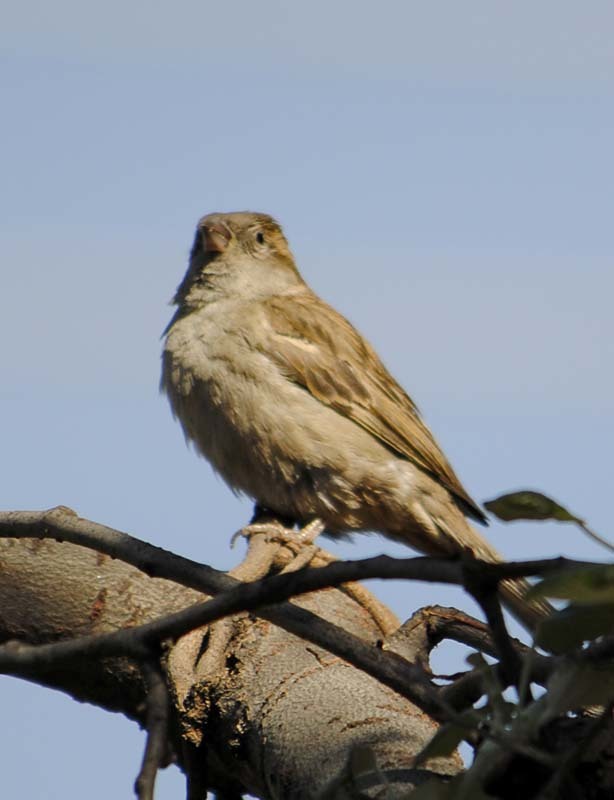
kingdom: Animalia
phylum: Chordata
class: Aves
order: Passeriformes
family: Passeridae
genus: Passer
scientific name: Passer domesticus
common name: House sparrow
